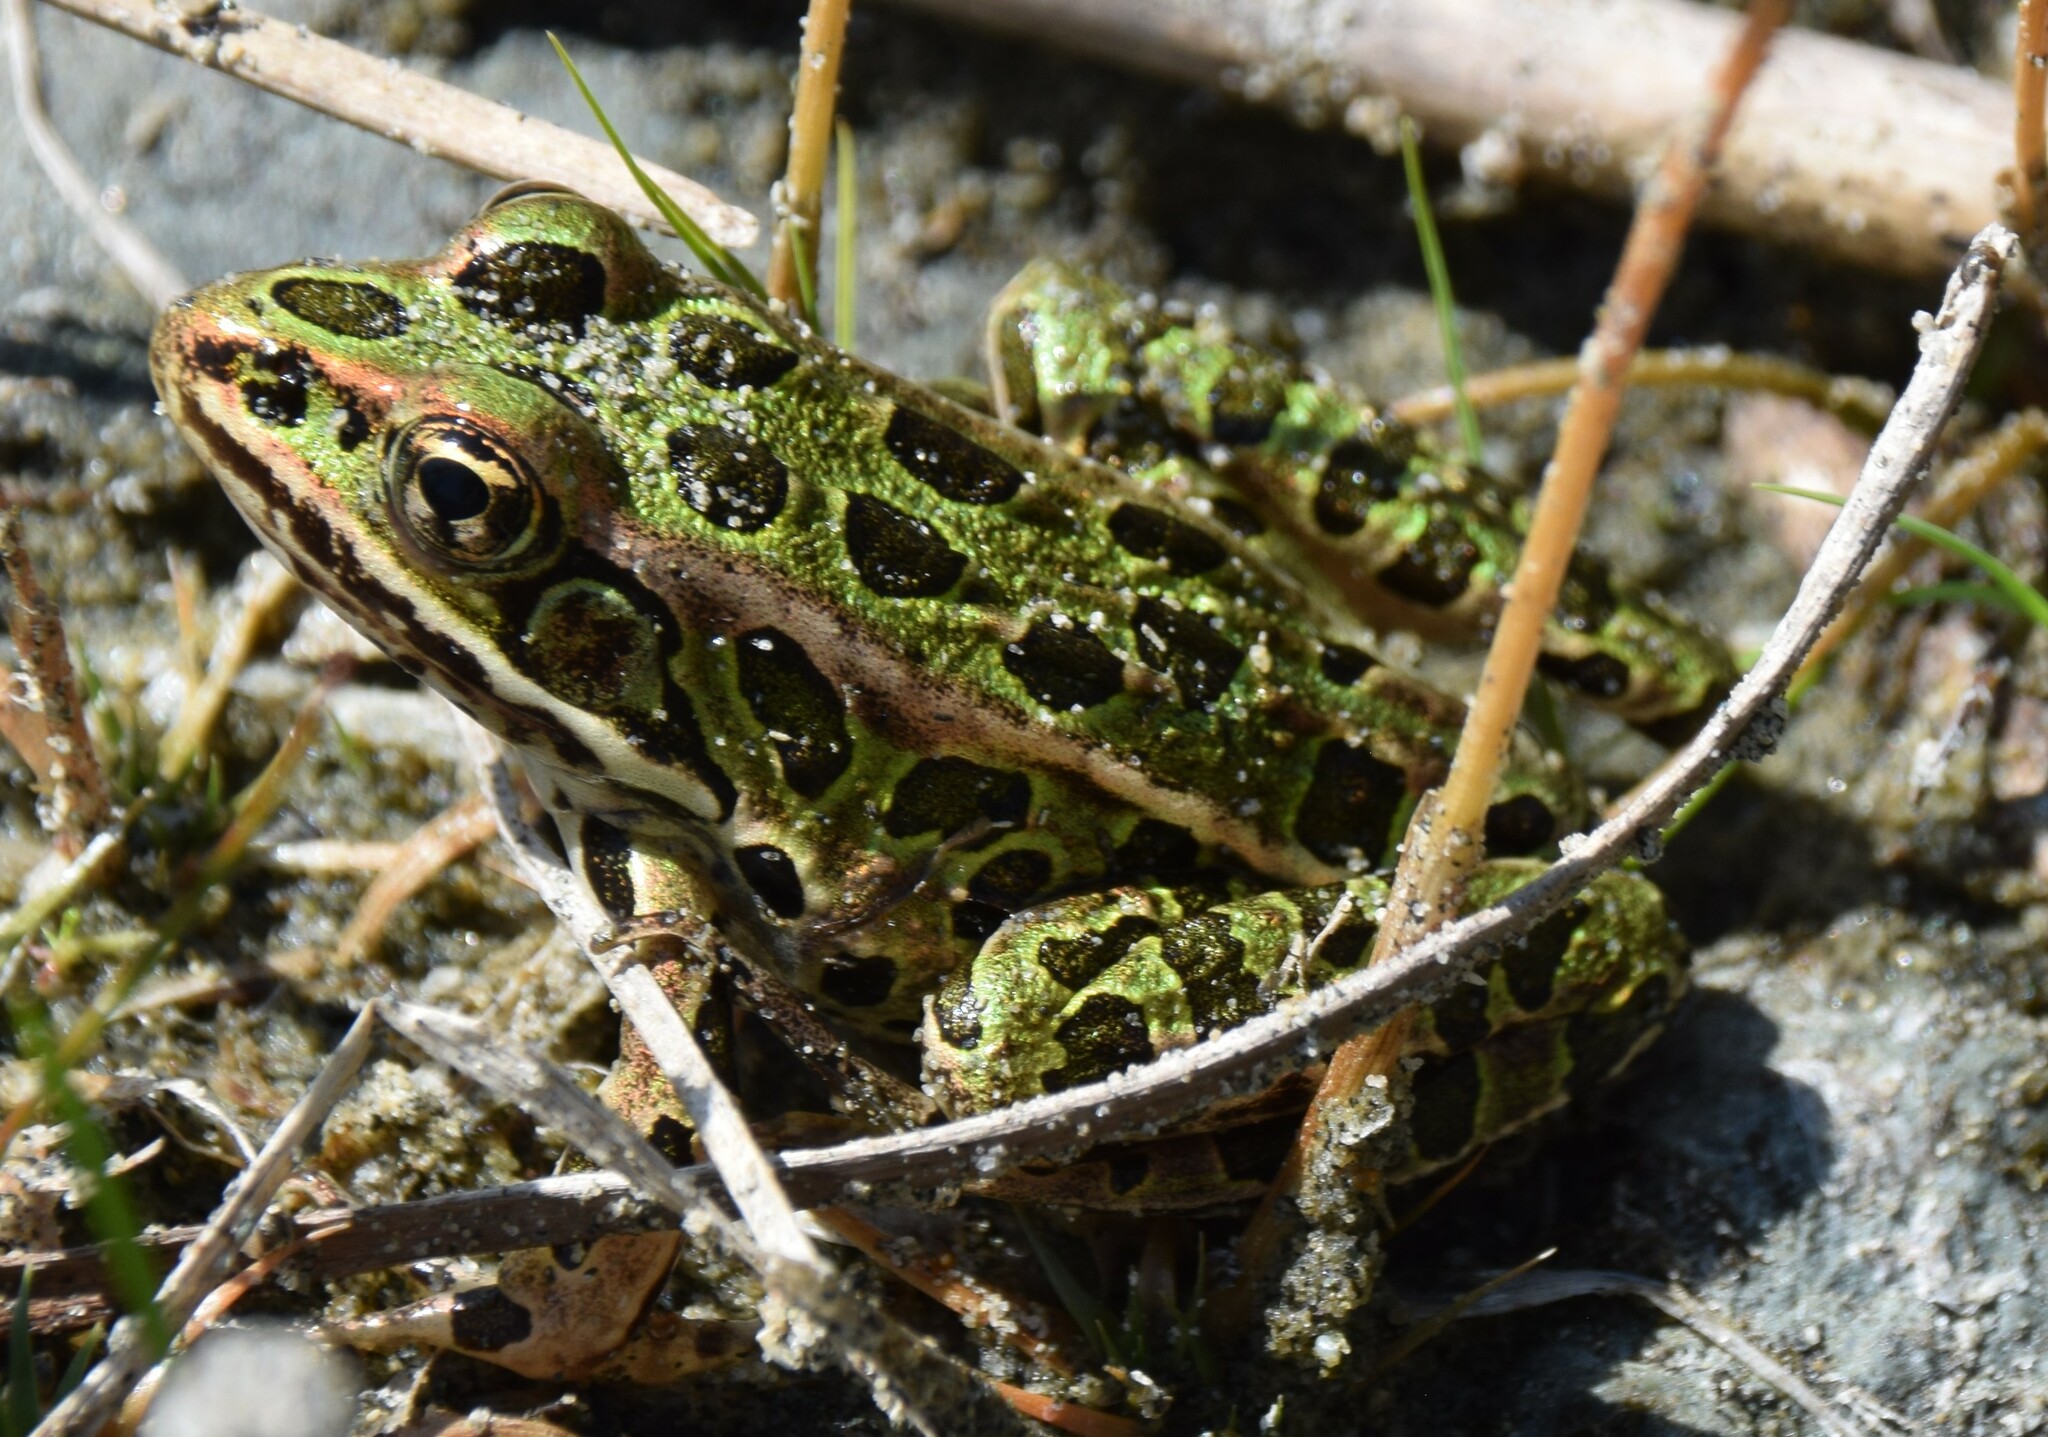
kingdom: Animalia
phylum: Chordata
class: Amphibia
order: Anura
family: Ranidae
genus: Lithobates
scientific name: Lithobates pipiens
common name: Northern leopard frog
